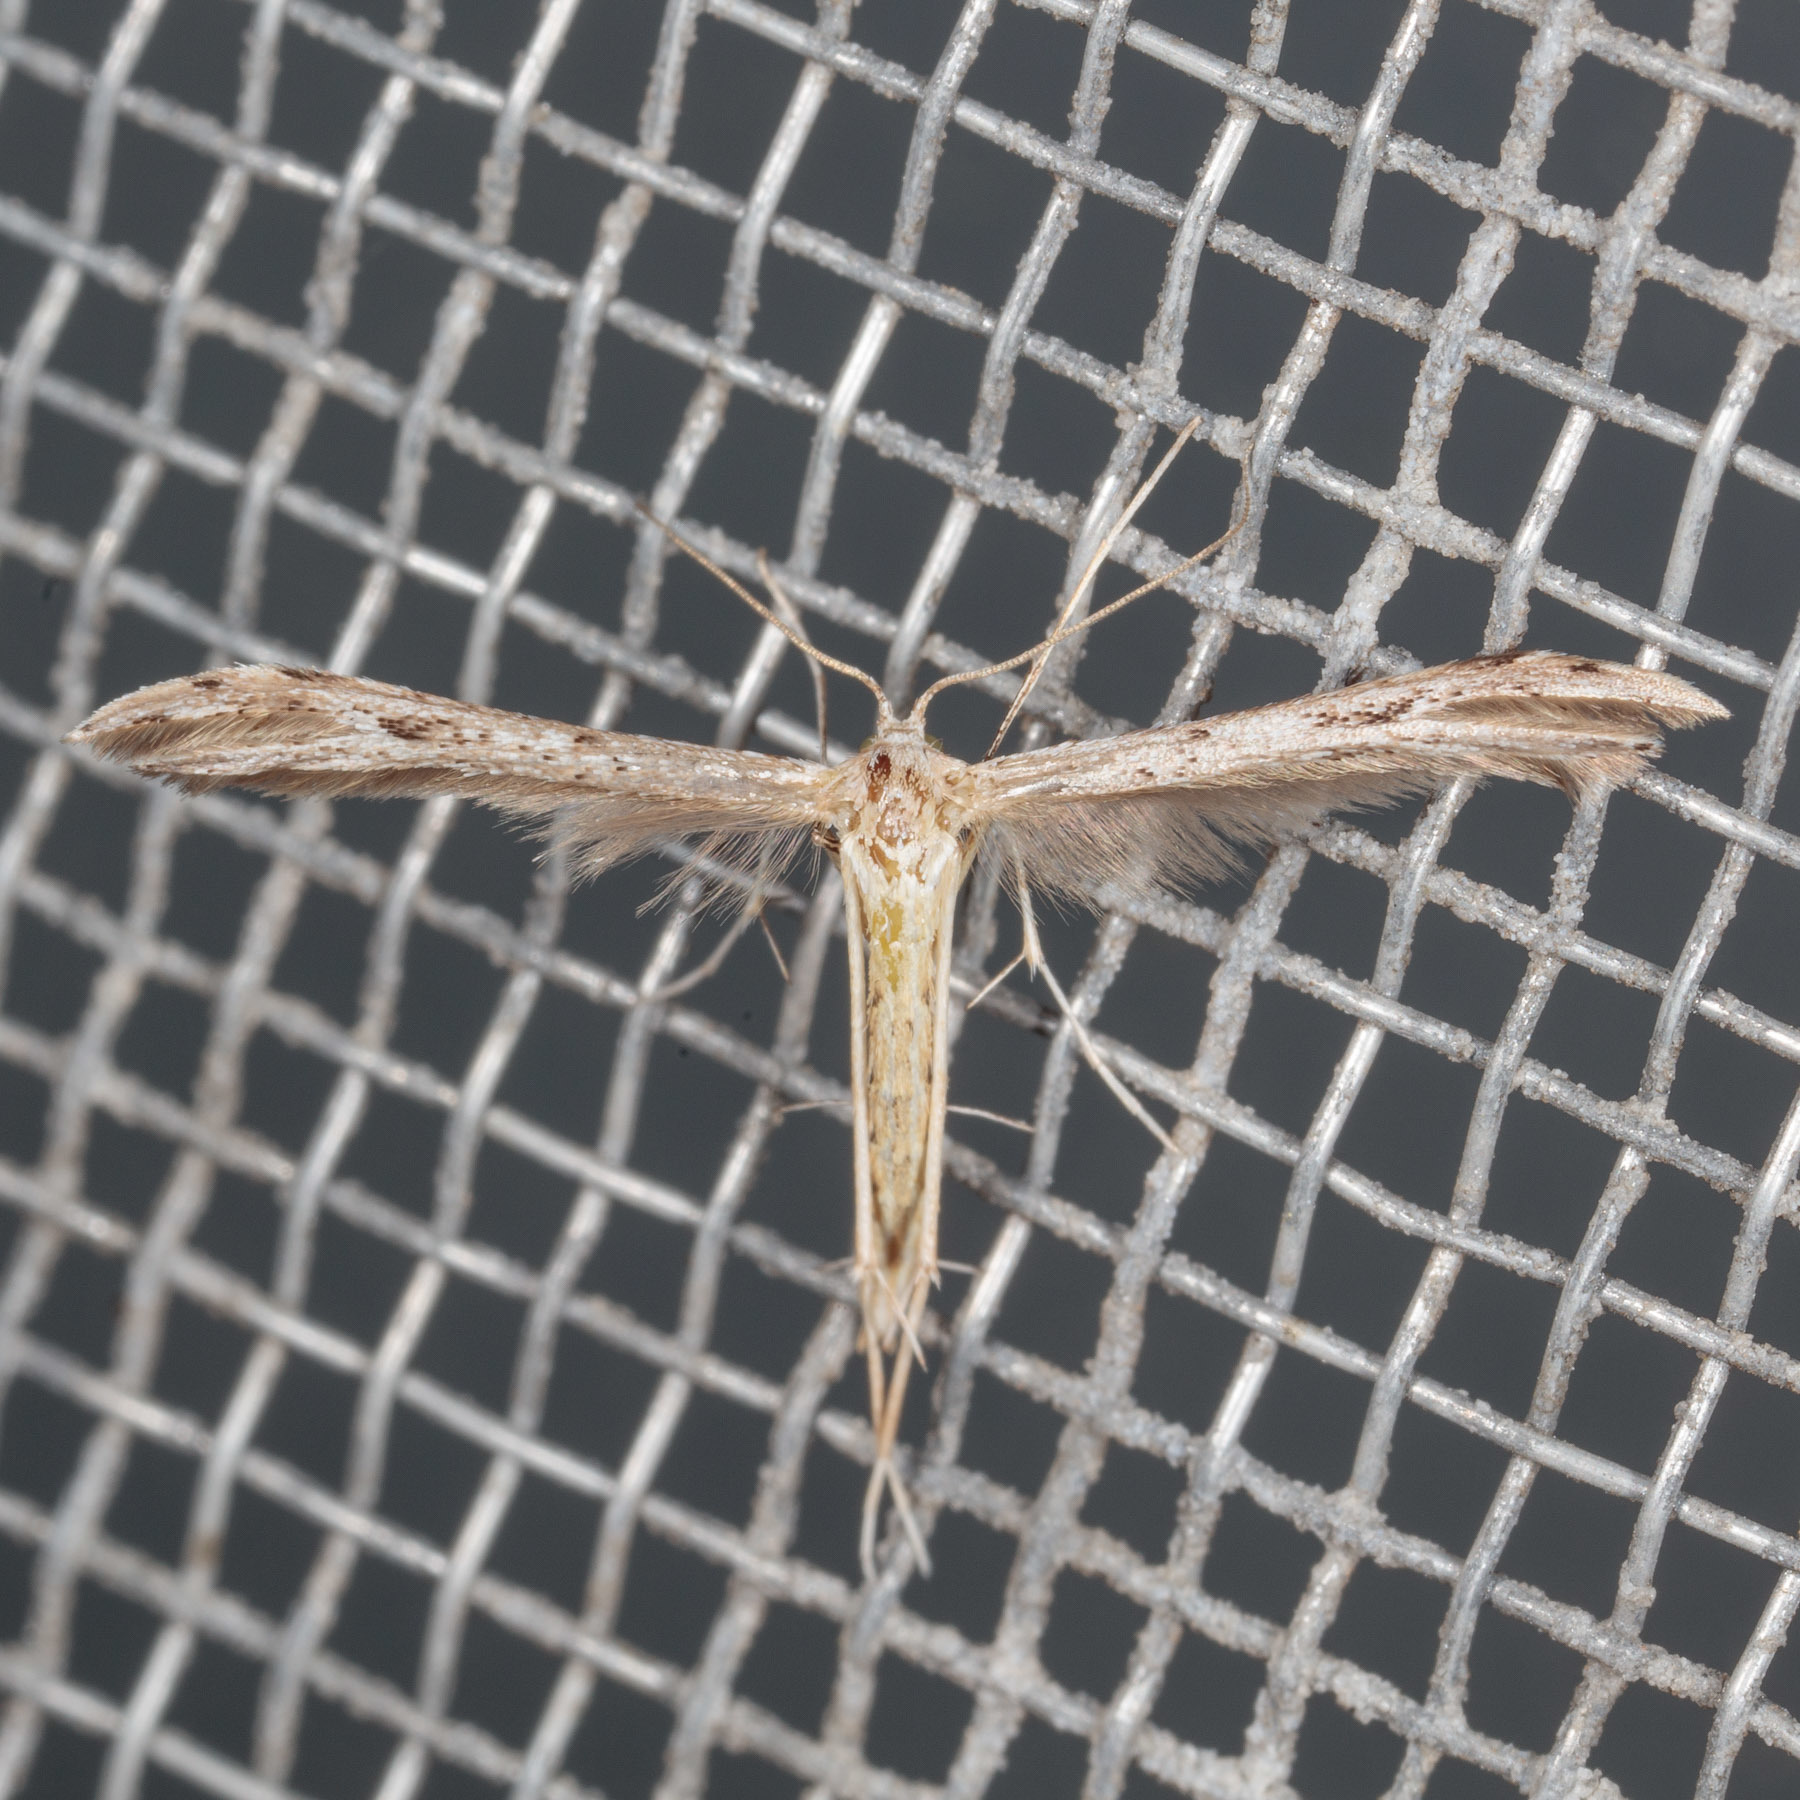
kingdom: Animalia
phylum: Arthropoda
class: Insecta
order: Lepidoptera
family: Pterophoridae
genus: Pselnophorus
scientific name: Pselnophorus belfragei
